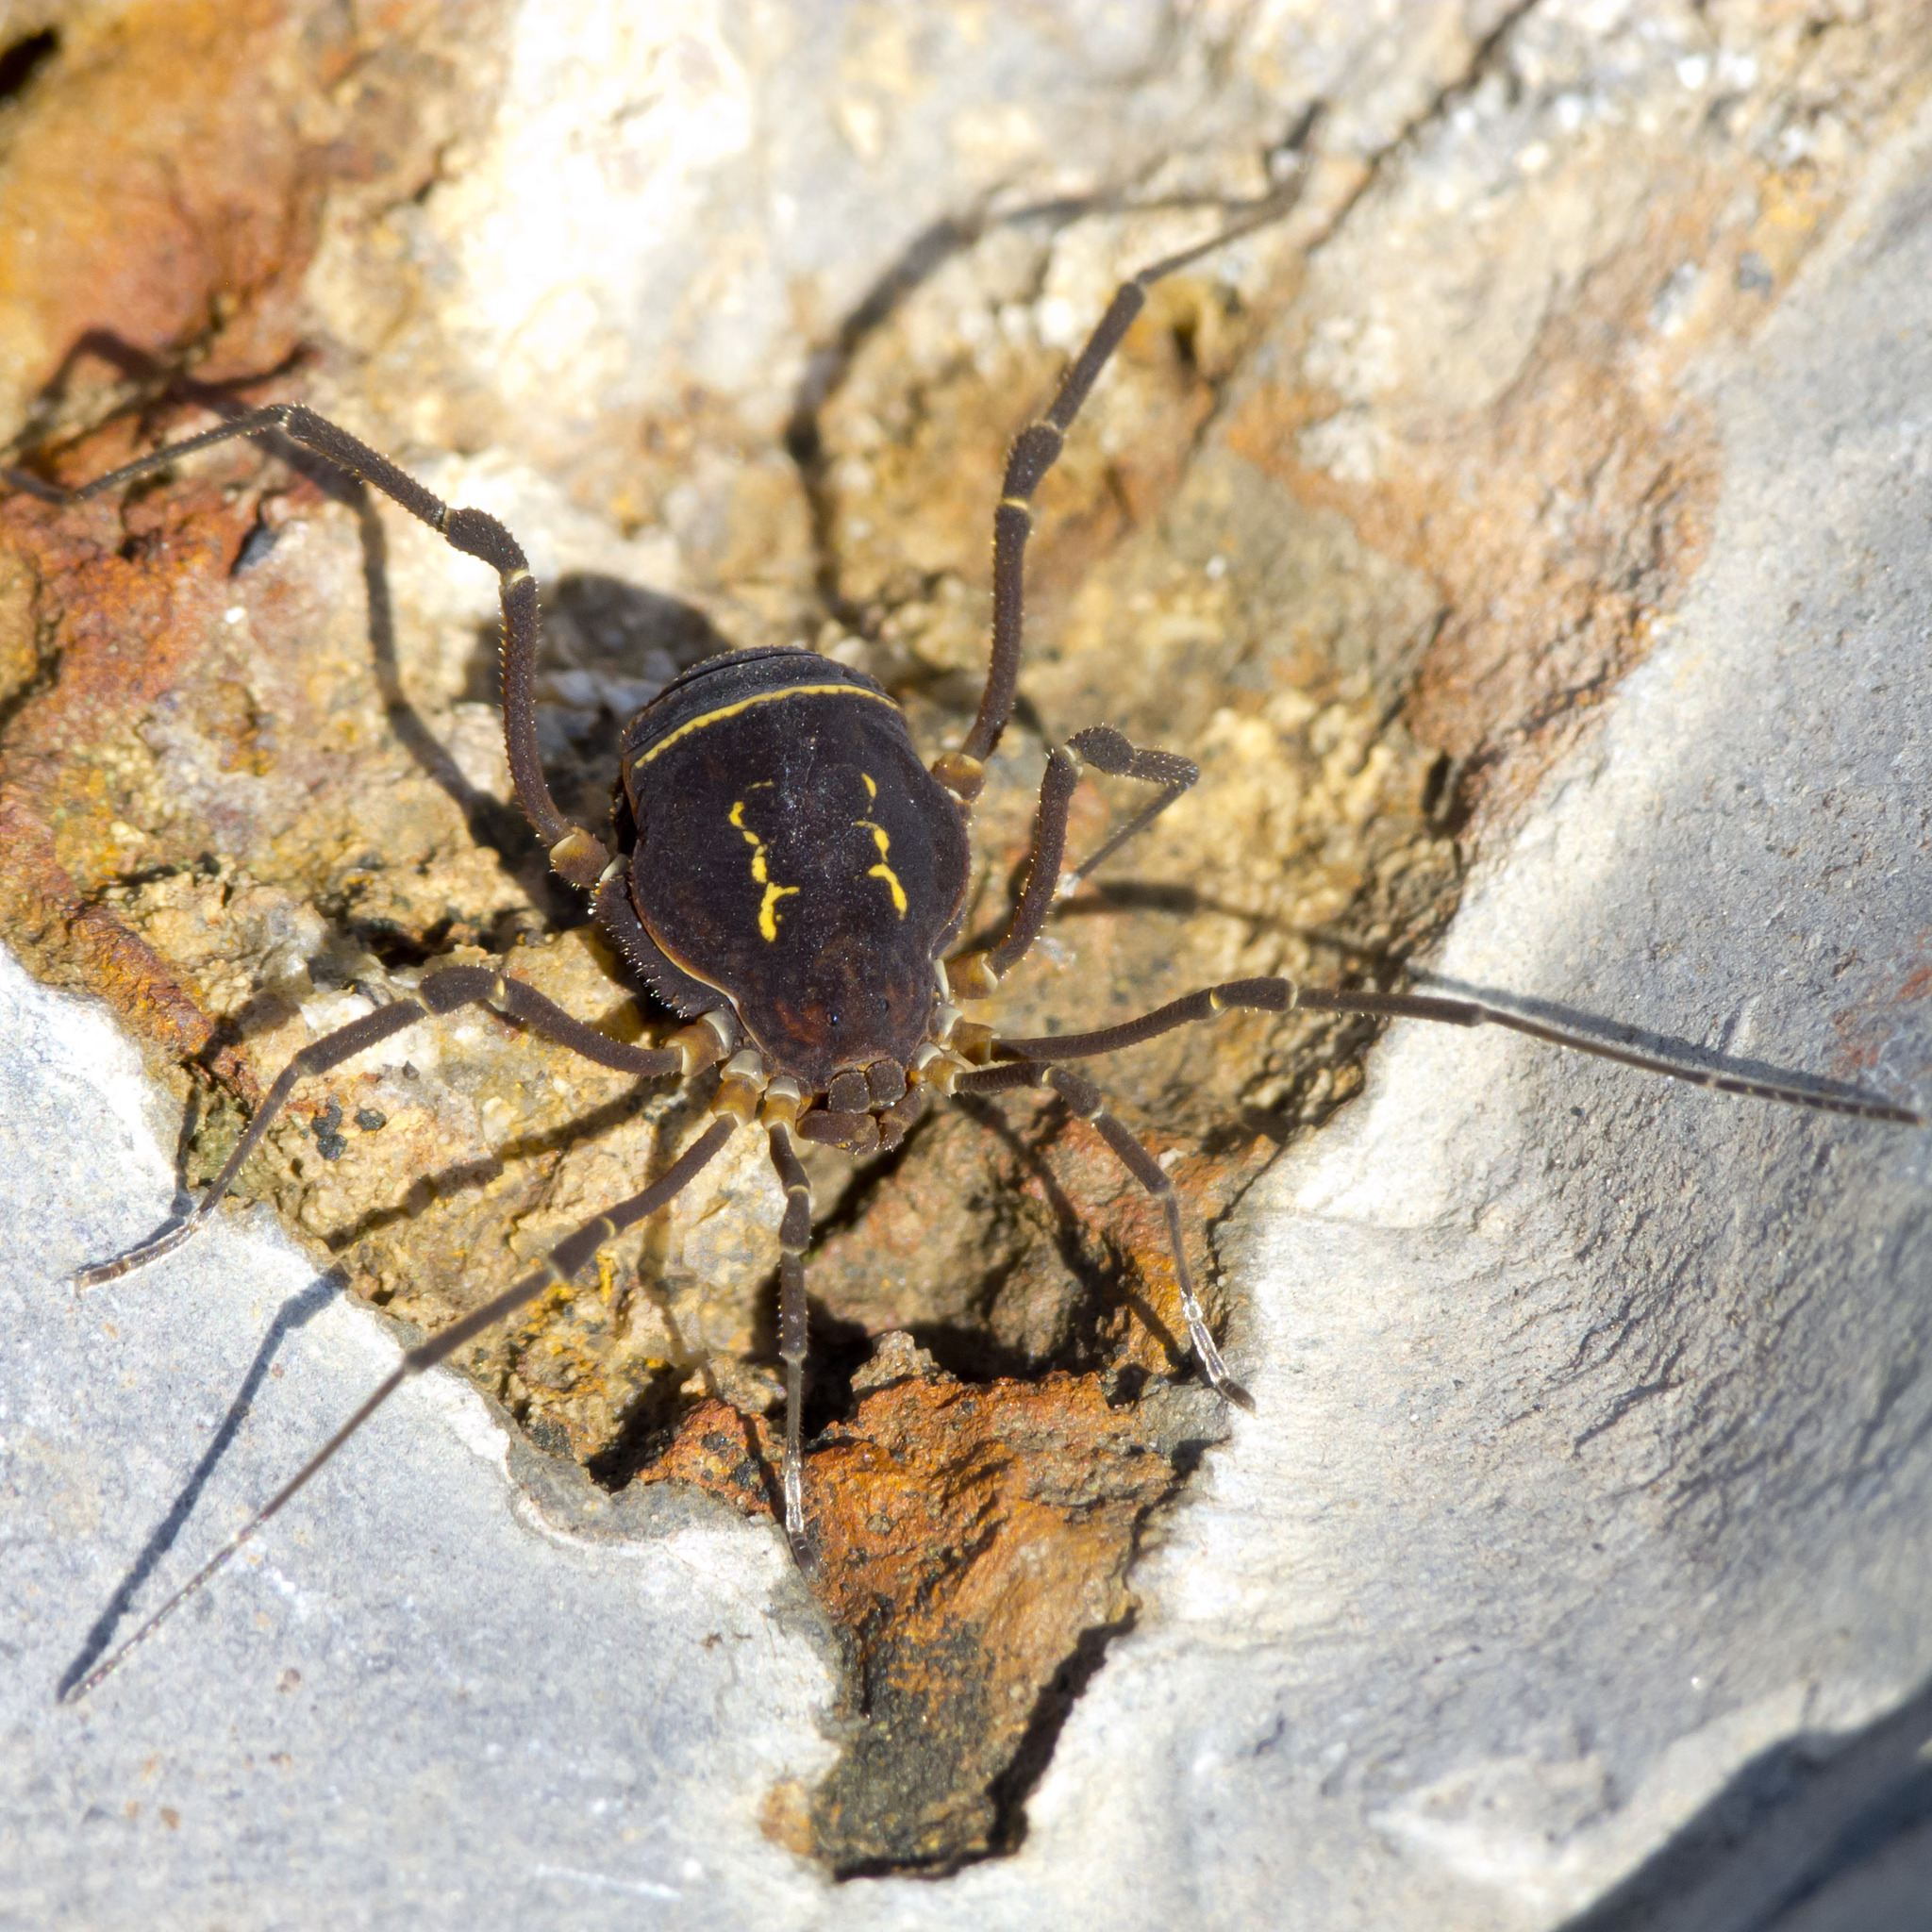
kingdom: Animalia
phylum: Arthropoda
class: Arachnida
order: Opiliones
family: Cosmetidae
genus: Eulibitia
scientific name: Eulibitia scalaris
